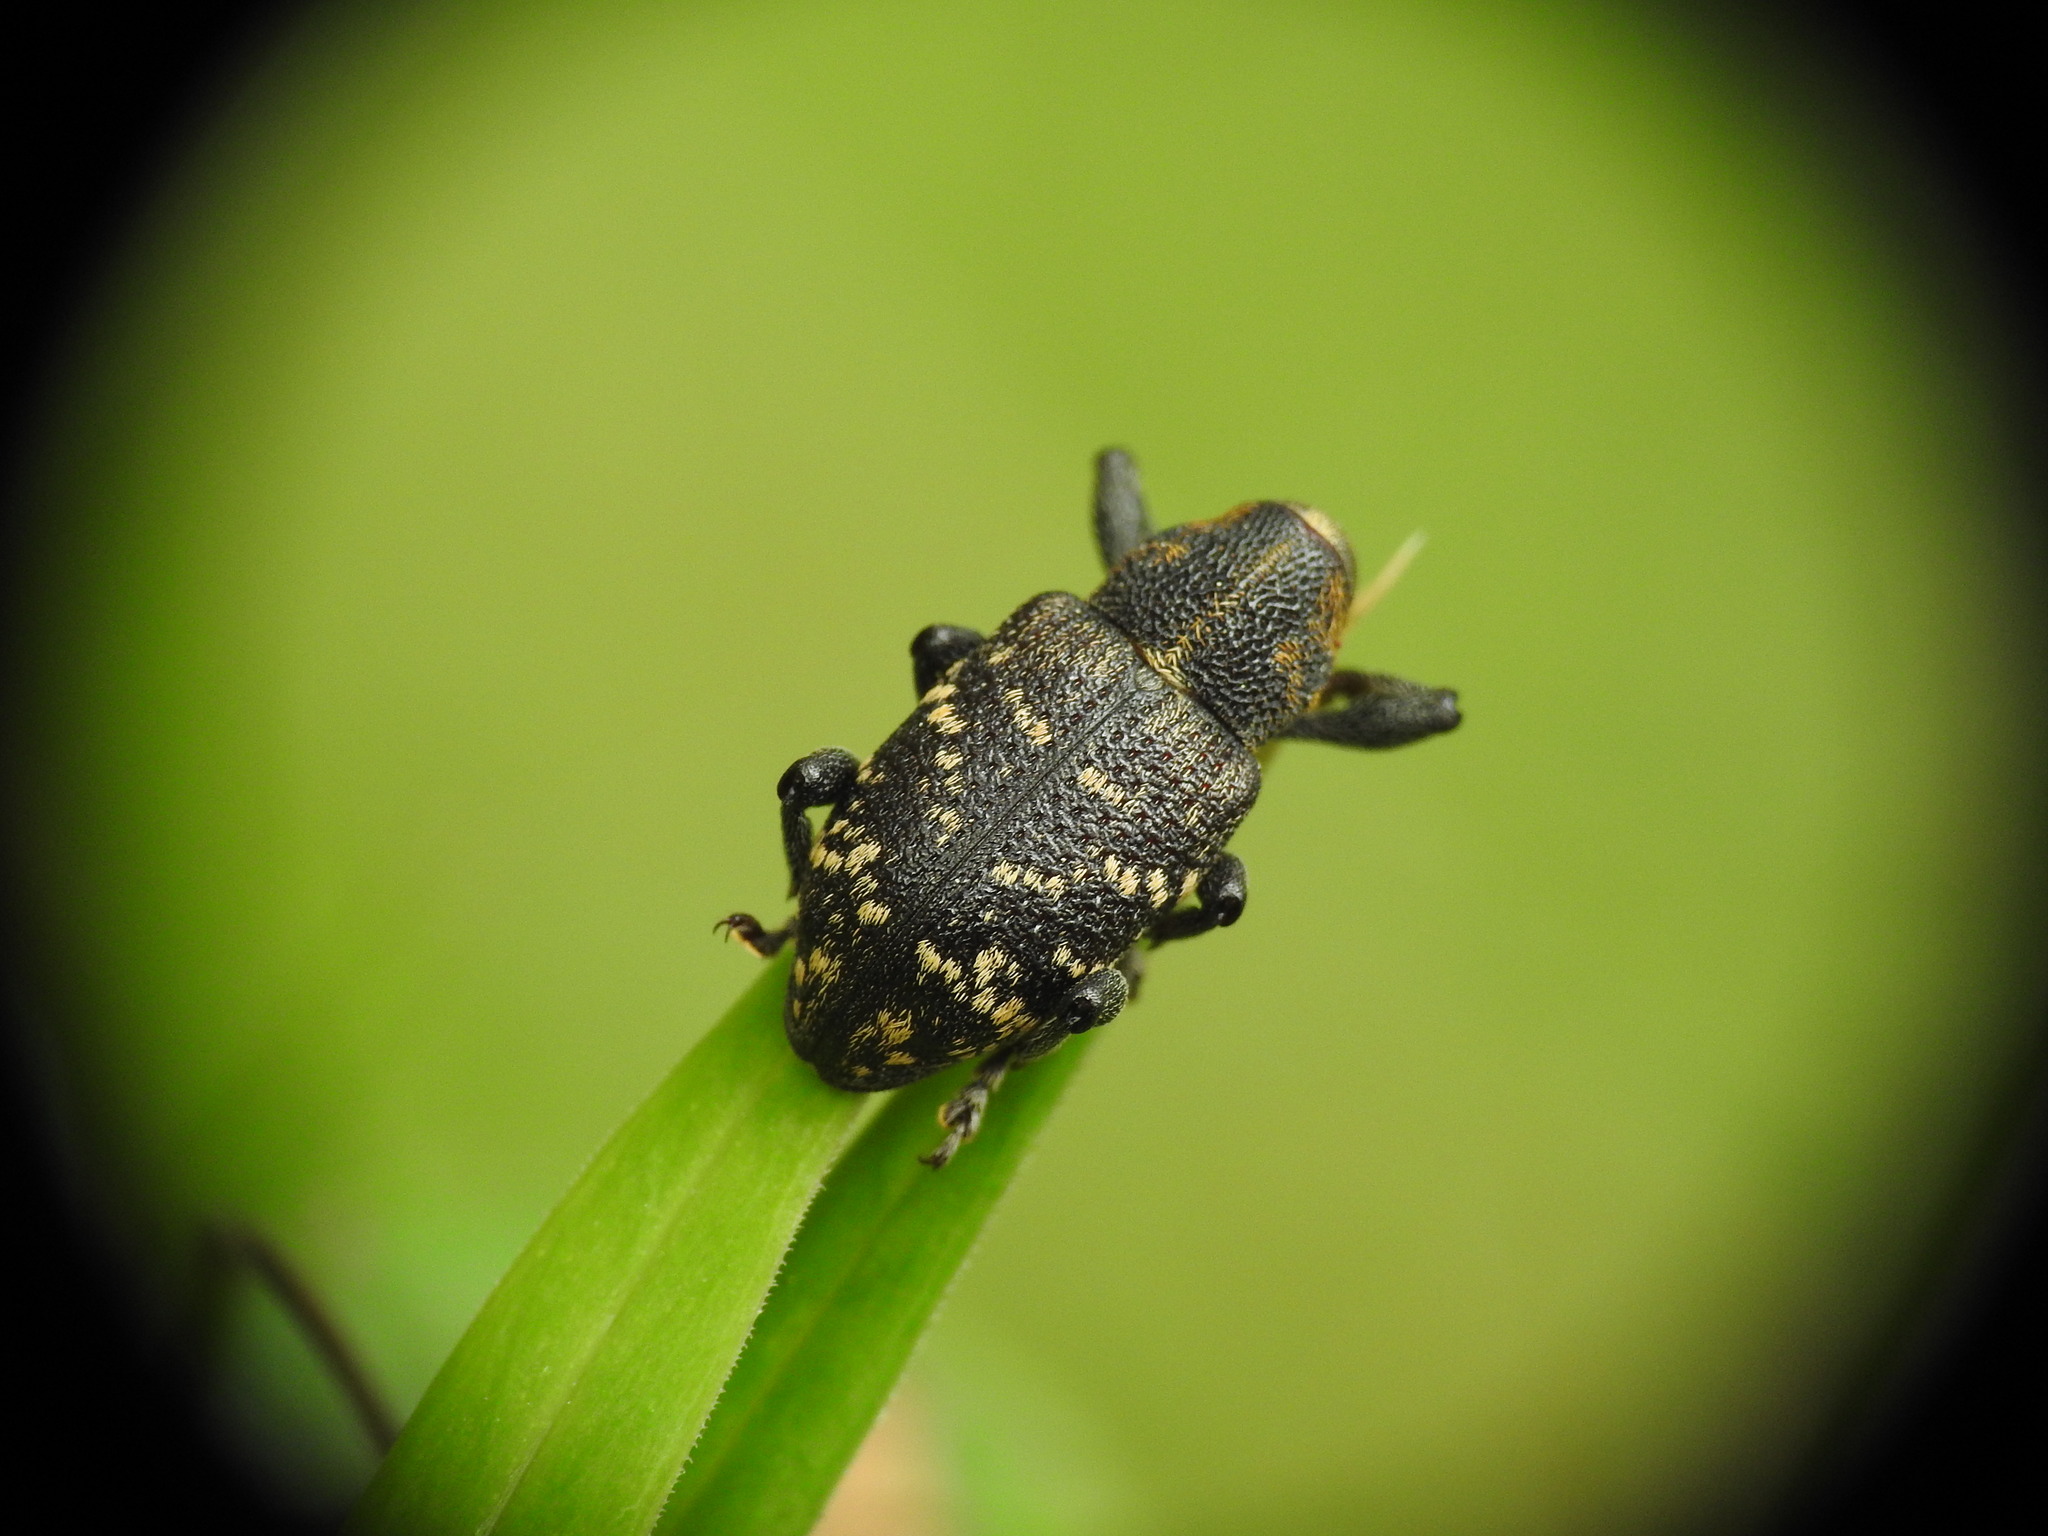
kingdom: Animalia
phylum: Arthropoda
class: Insecta
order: Coleoptera
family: Curculionidae
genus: Hylobius
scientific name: Hylobius abietis
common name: Large pine weevil
